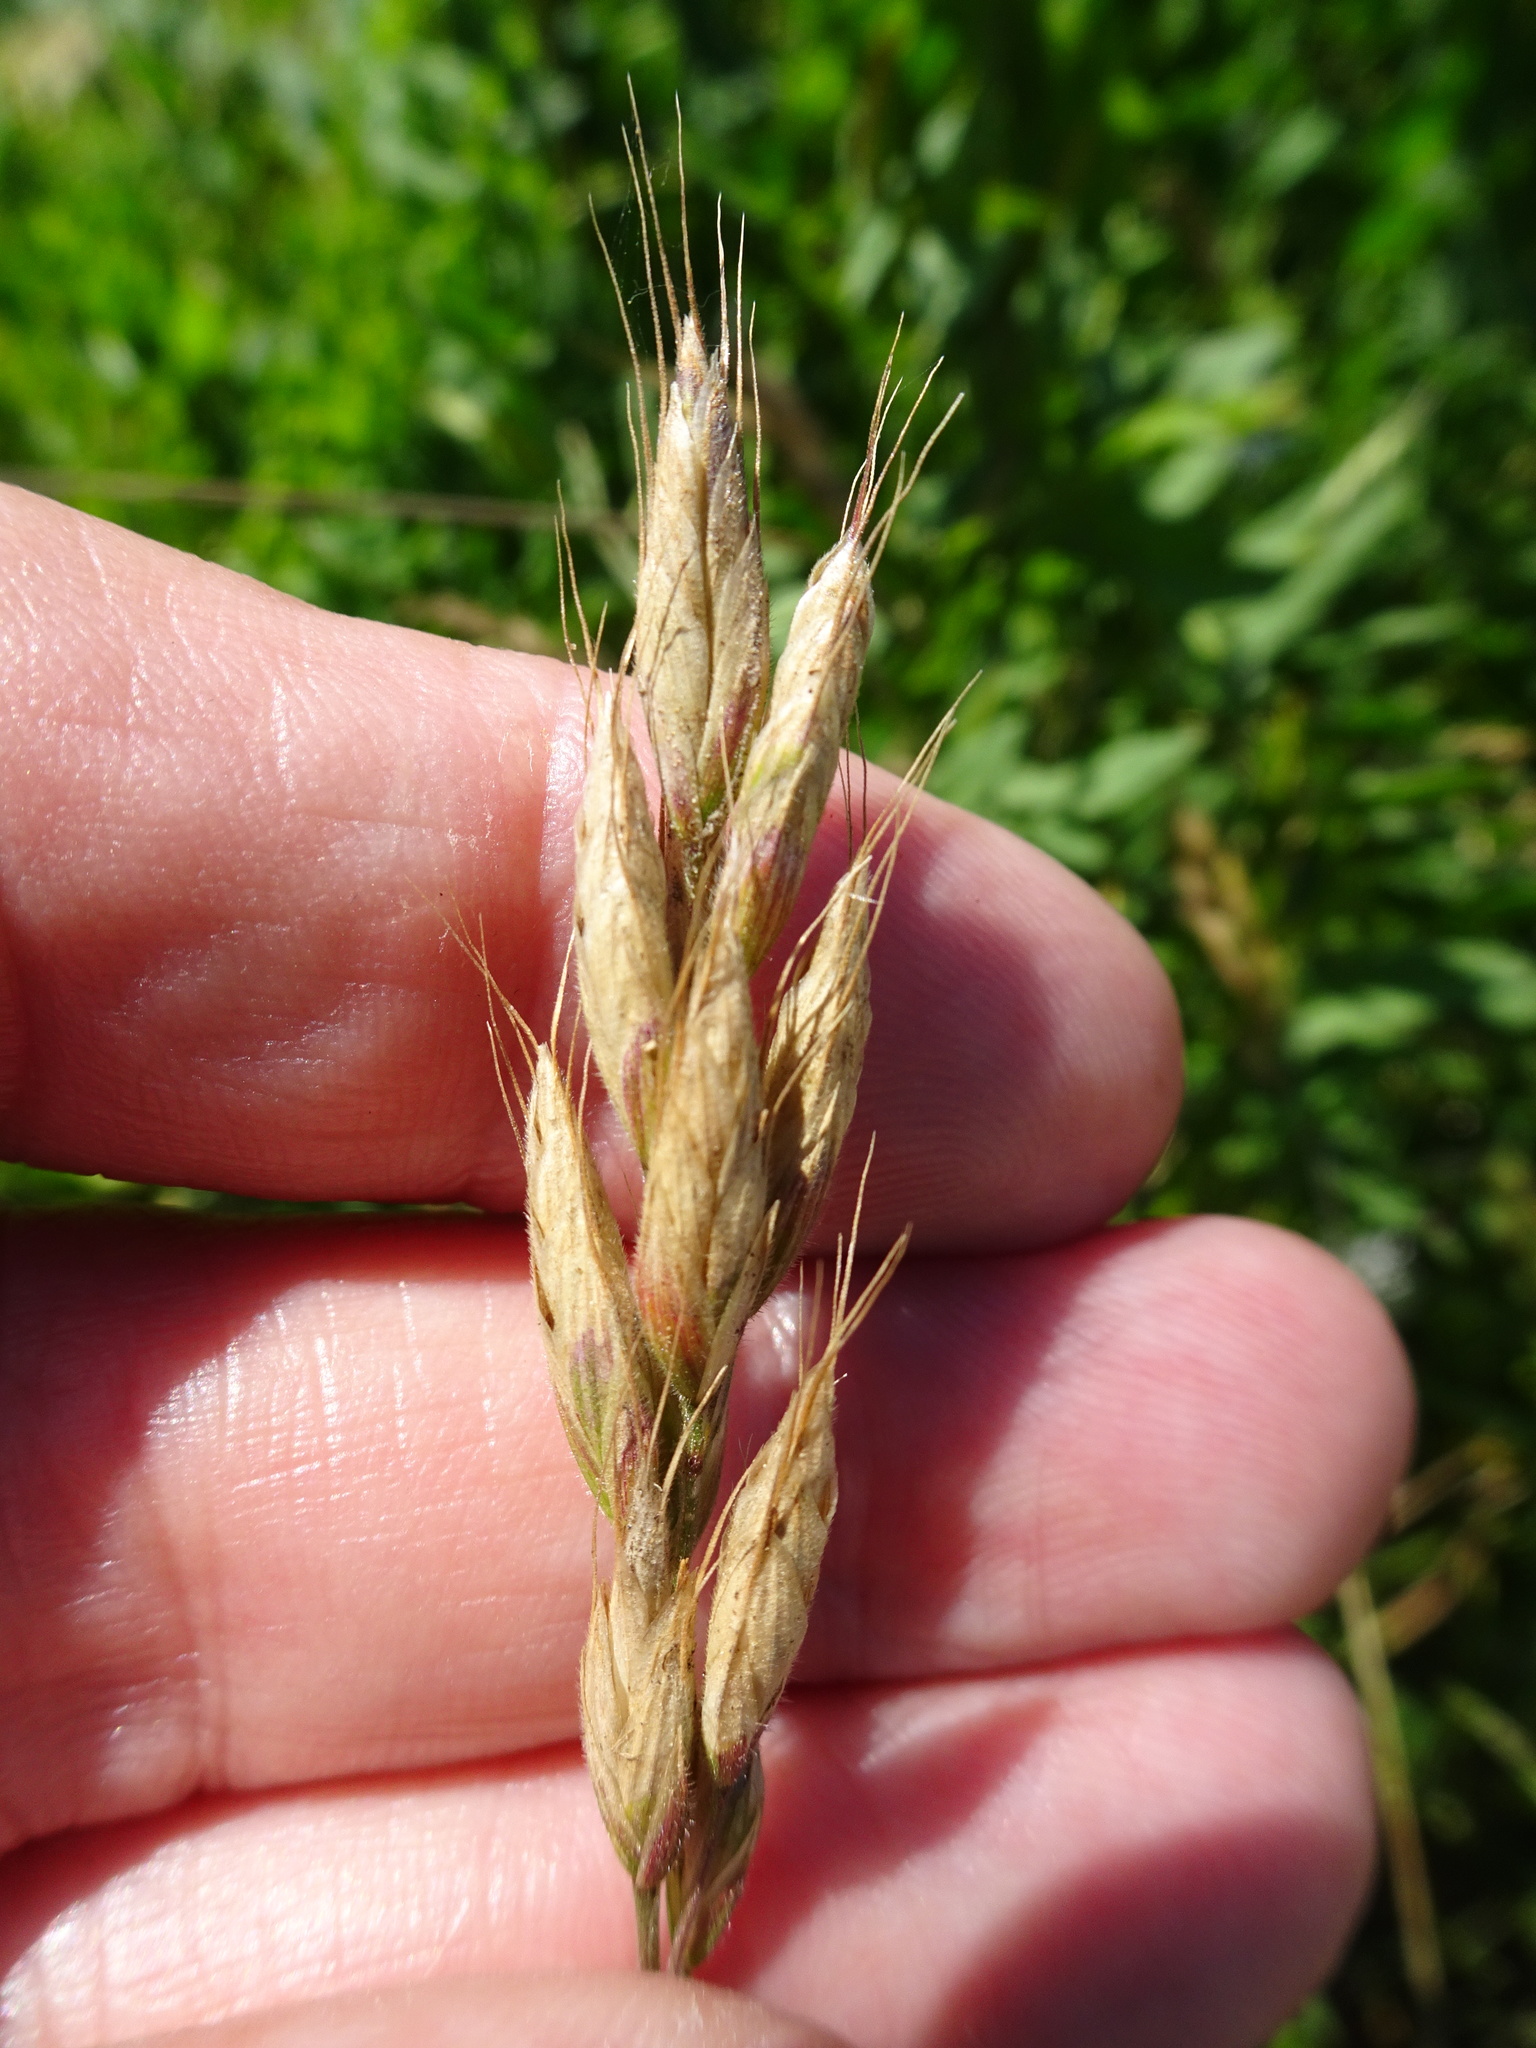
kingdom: Plantae
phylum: Tracheophyta
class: Liliopsida
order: Poales
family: Poaceae
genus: Bromus
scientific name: Bromus hordeaceus
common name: Soft brome
